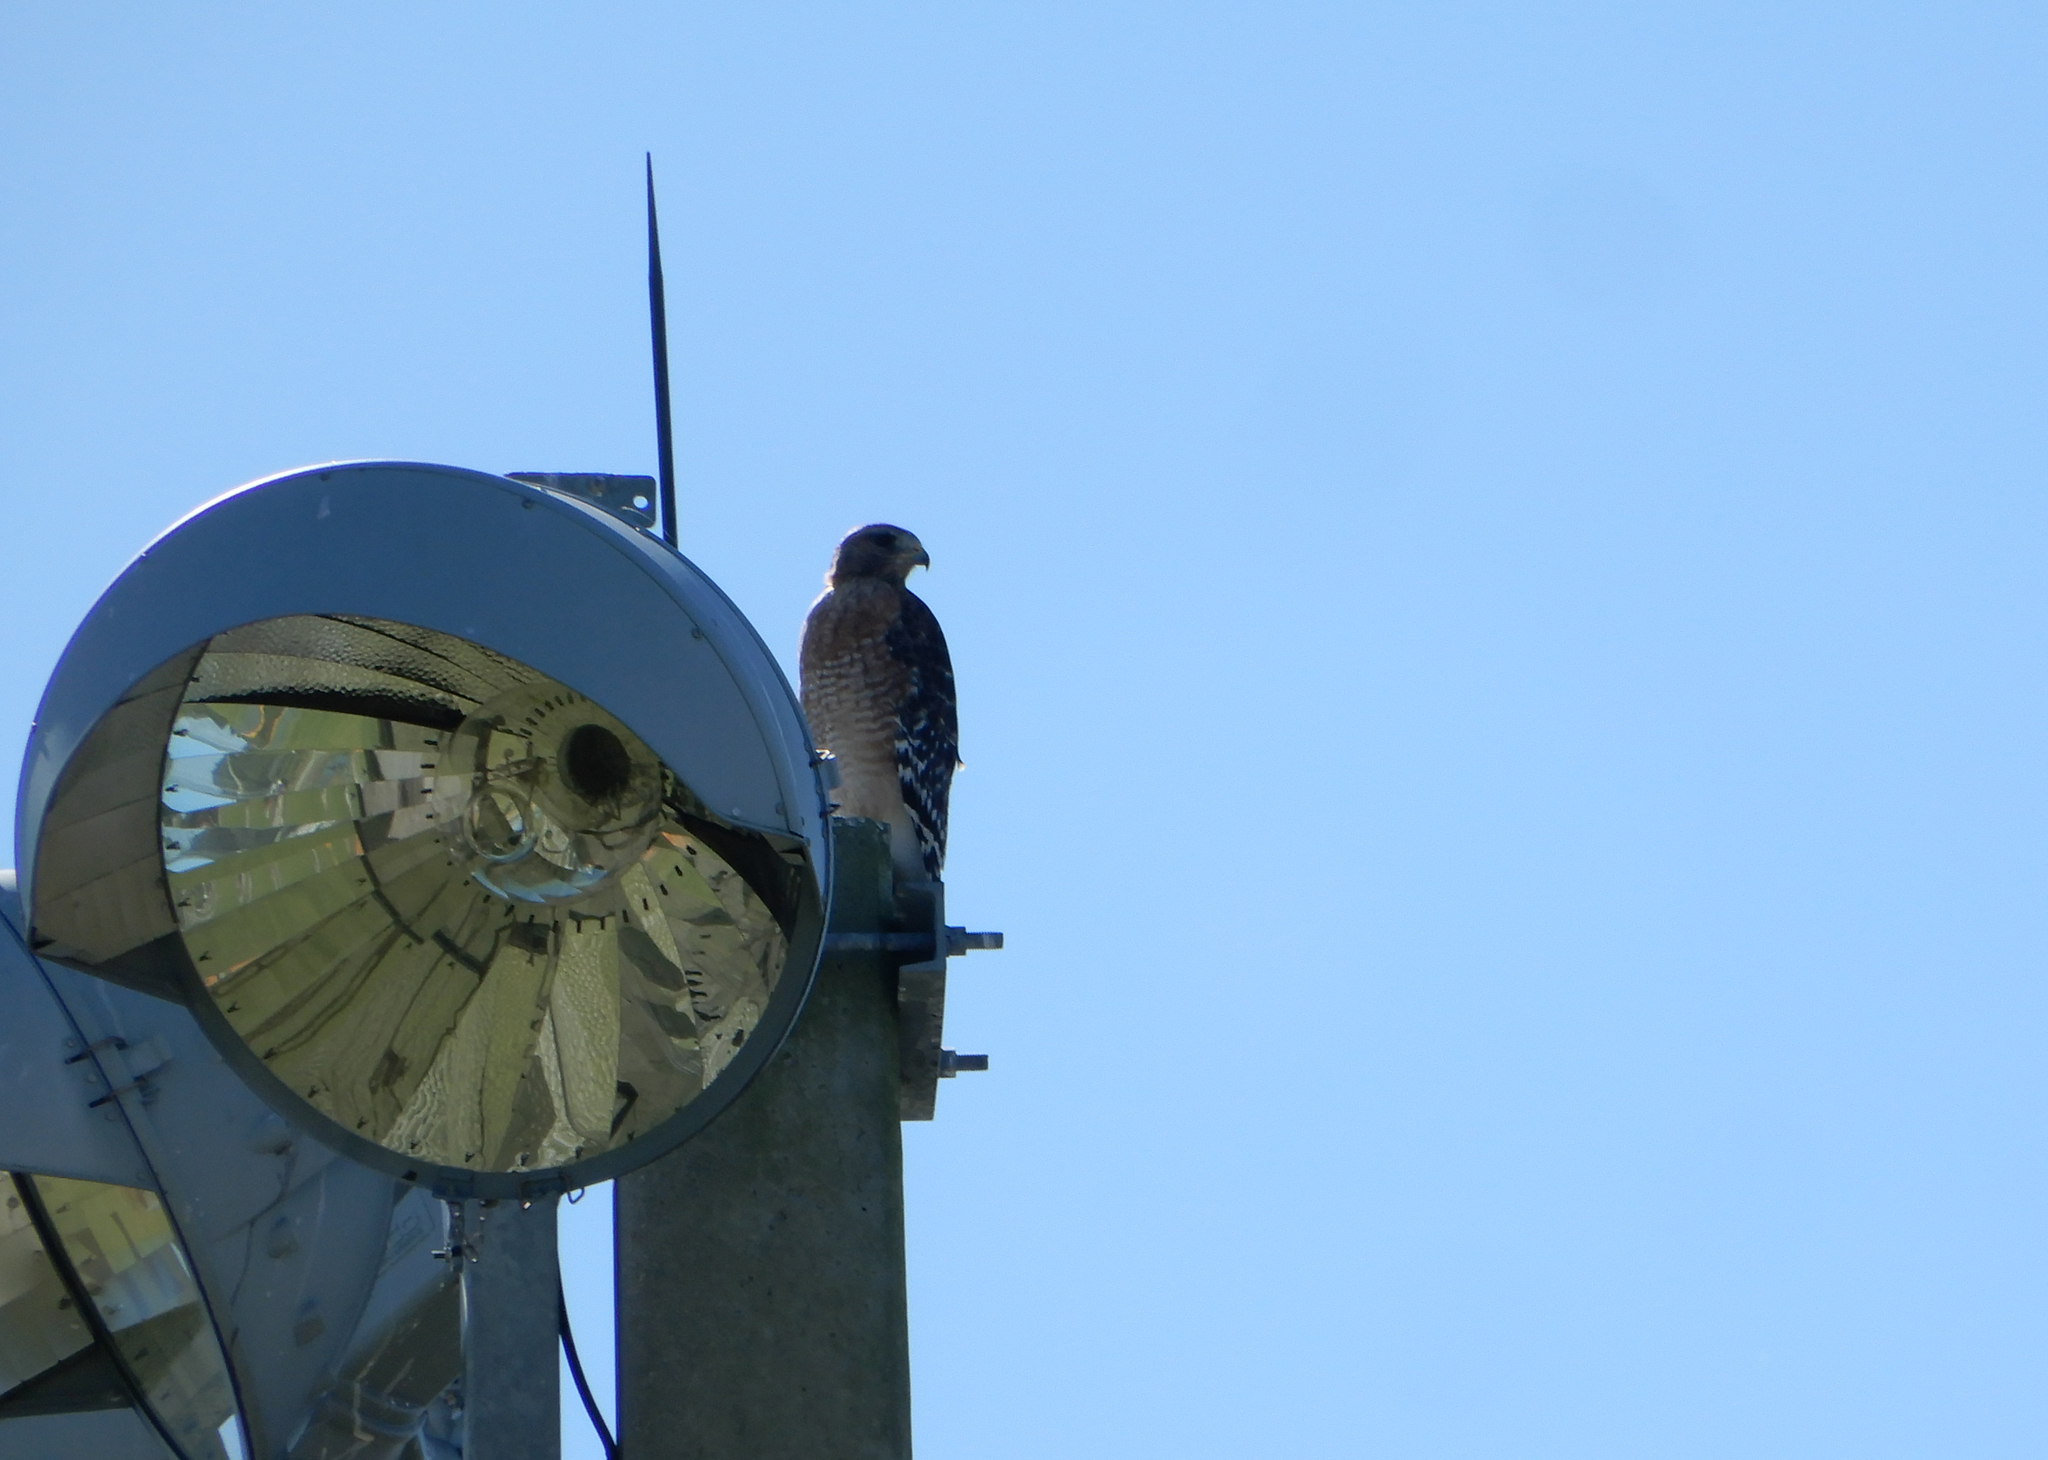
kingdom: Animalia
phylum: Chordata
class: Aves
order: Accipitriformes
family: Accipitridae
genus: Buteo
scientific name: Buteo lineatus
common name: Red-shouldered hawk
